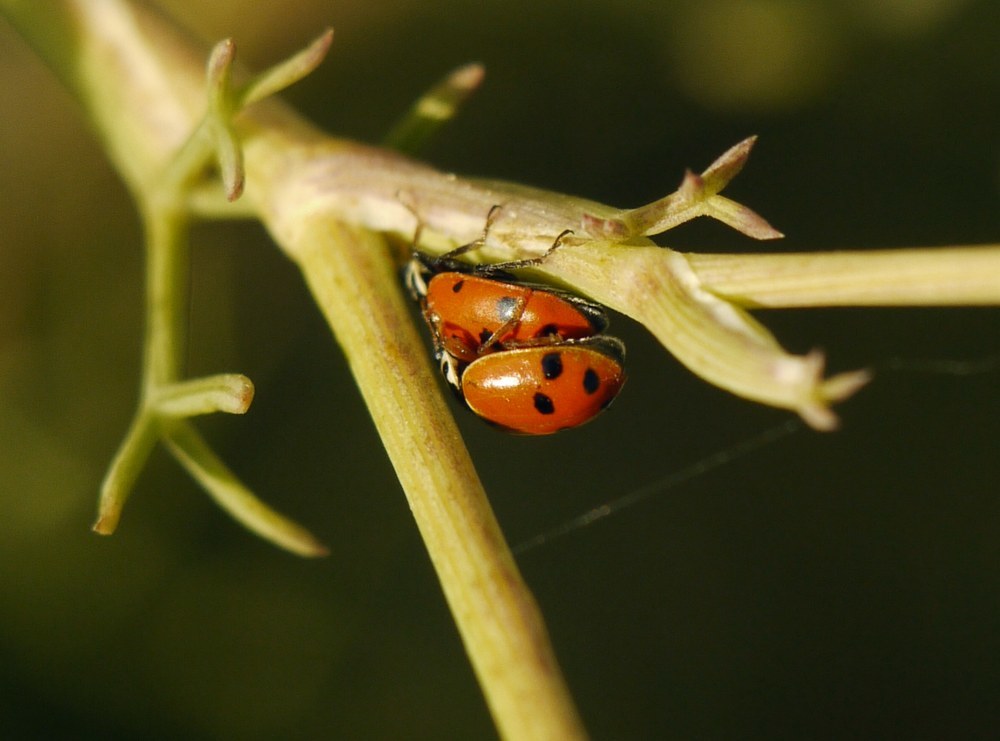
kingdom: Animalia
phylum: Arthropoda
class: Insecta
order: Coleoptera
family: Coccinellidae
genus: Hippodamia
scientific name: Hippodamia variegata
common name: Ladybird beetle
